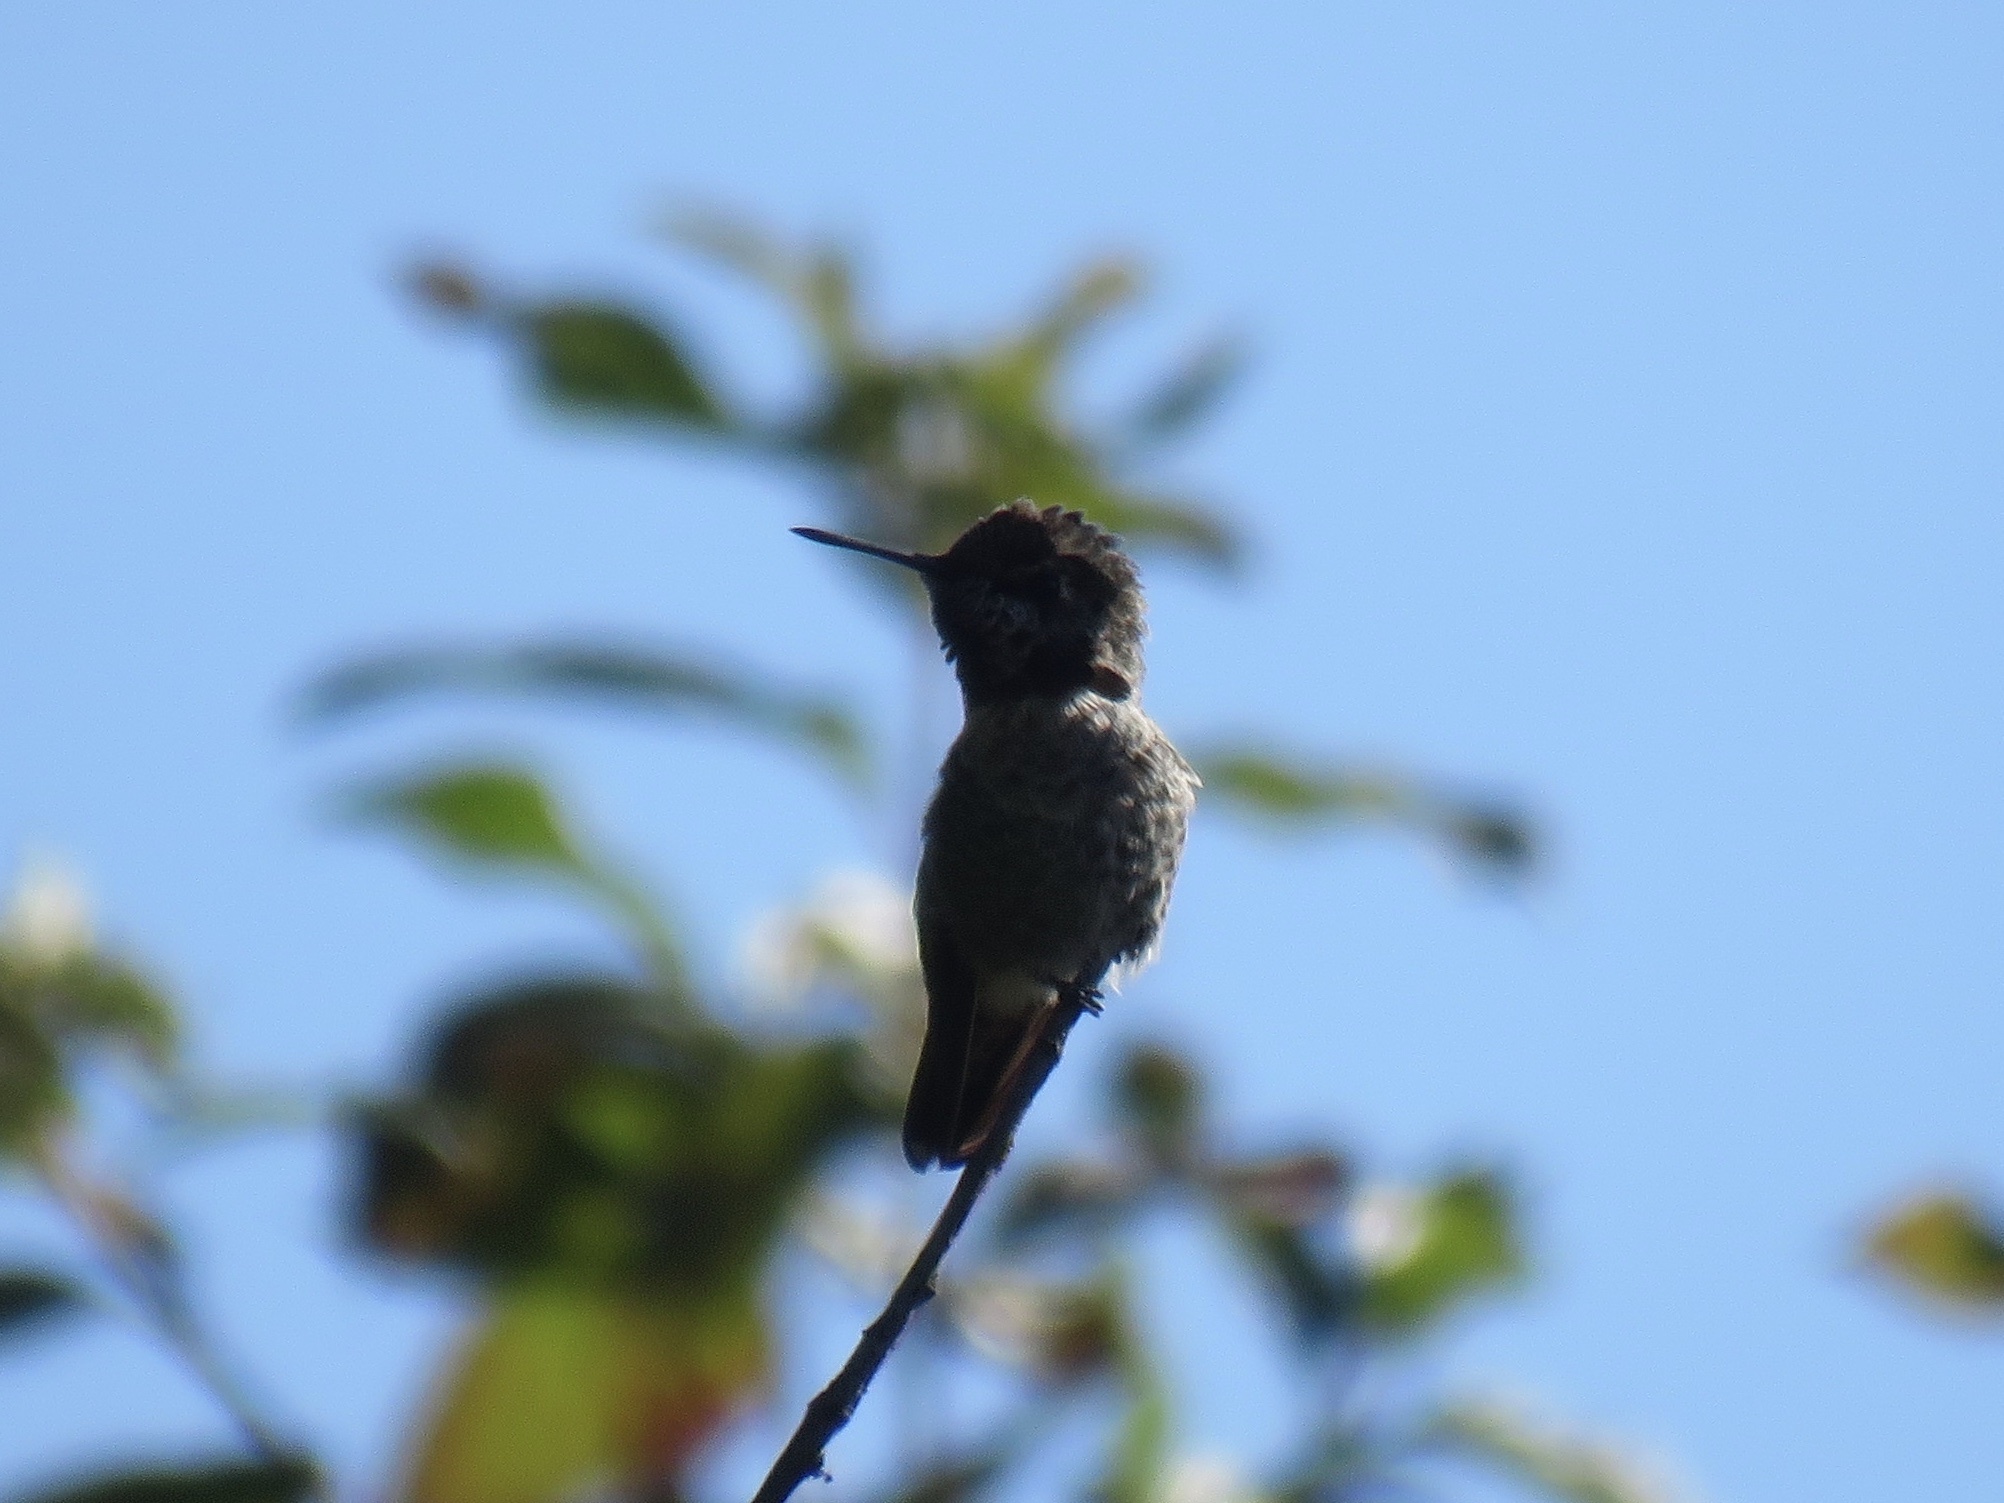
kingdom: Animalia
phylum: Chordata
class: Aves
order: Apodiformes
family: Trochilidae
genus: Calypte
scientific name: Calypte anna
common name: Anna's hummingbird
